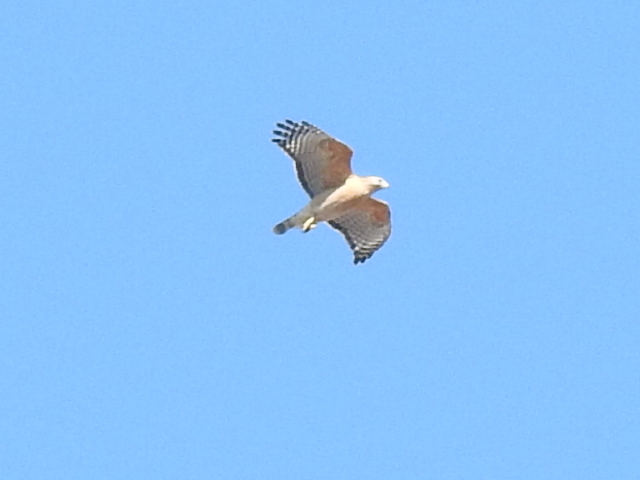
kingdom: Animalia
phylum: Chordata
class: Aves
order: Accipitriformes
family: Accipitridae
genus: Buteo
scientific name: Buteo lineatus
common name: Red-shouldered hawk
